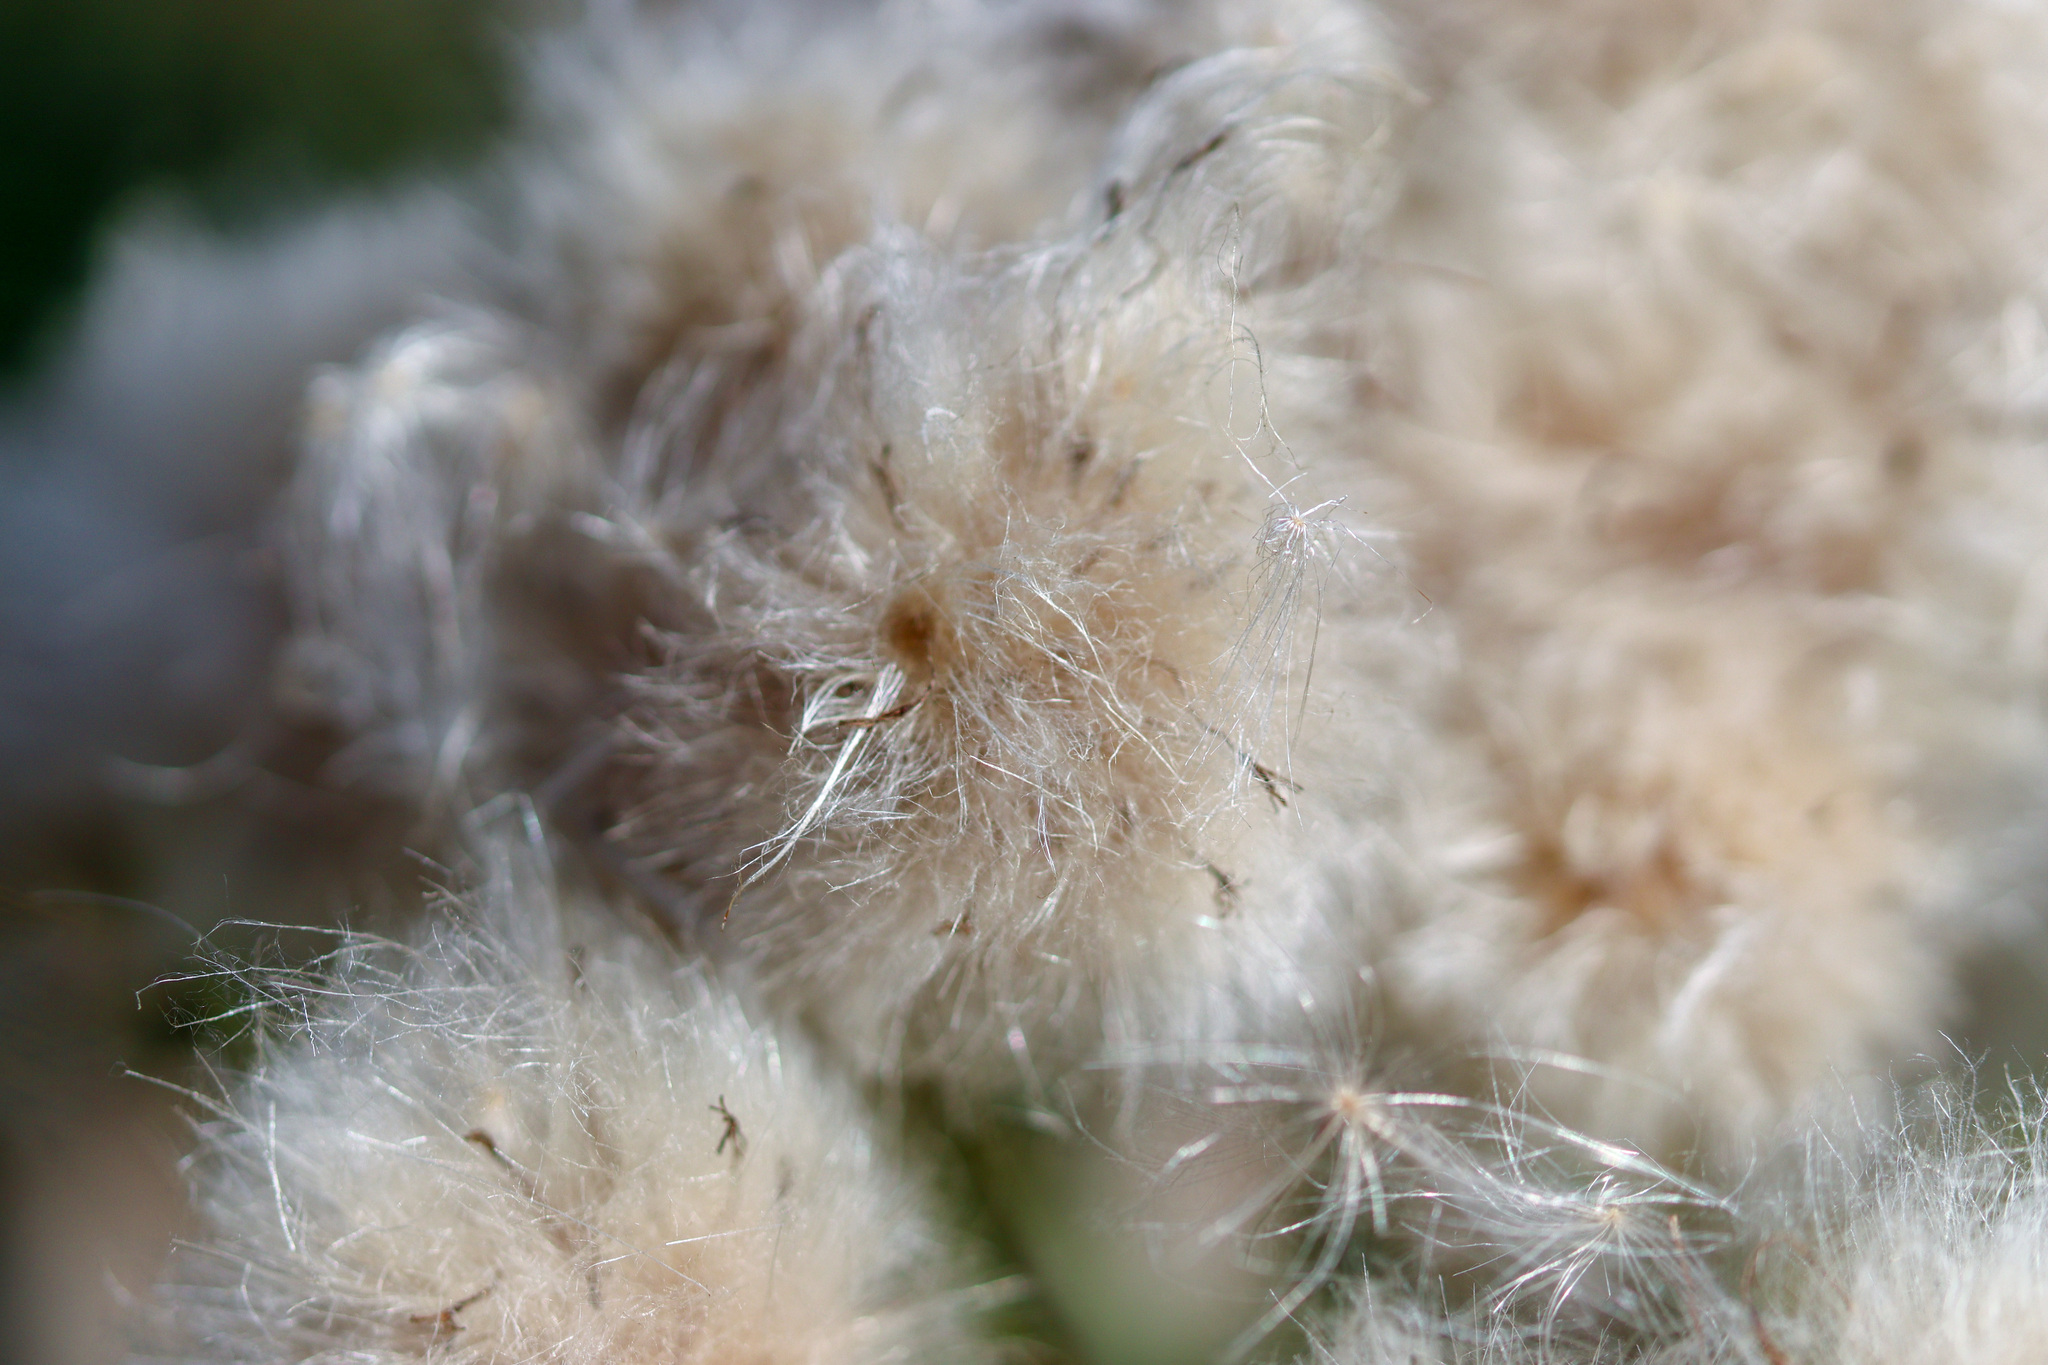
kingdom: Plantae
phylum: Tracheophyta
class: Magnoliopsida
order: Asterales
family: Asteraceae
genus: Cirsium
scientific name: Cirsium arvense
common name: Creeping thistle
